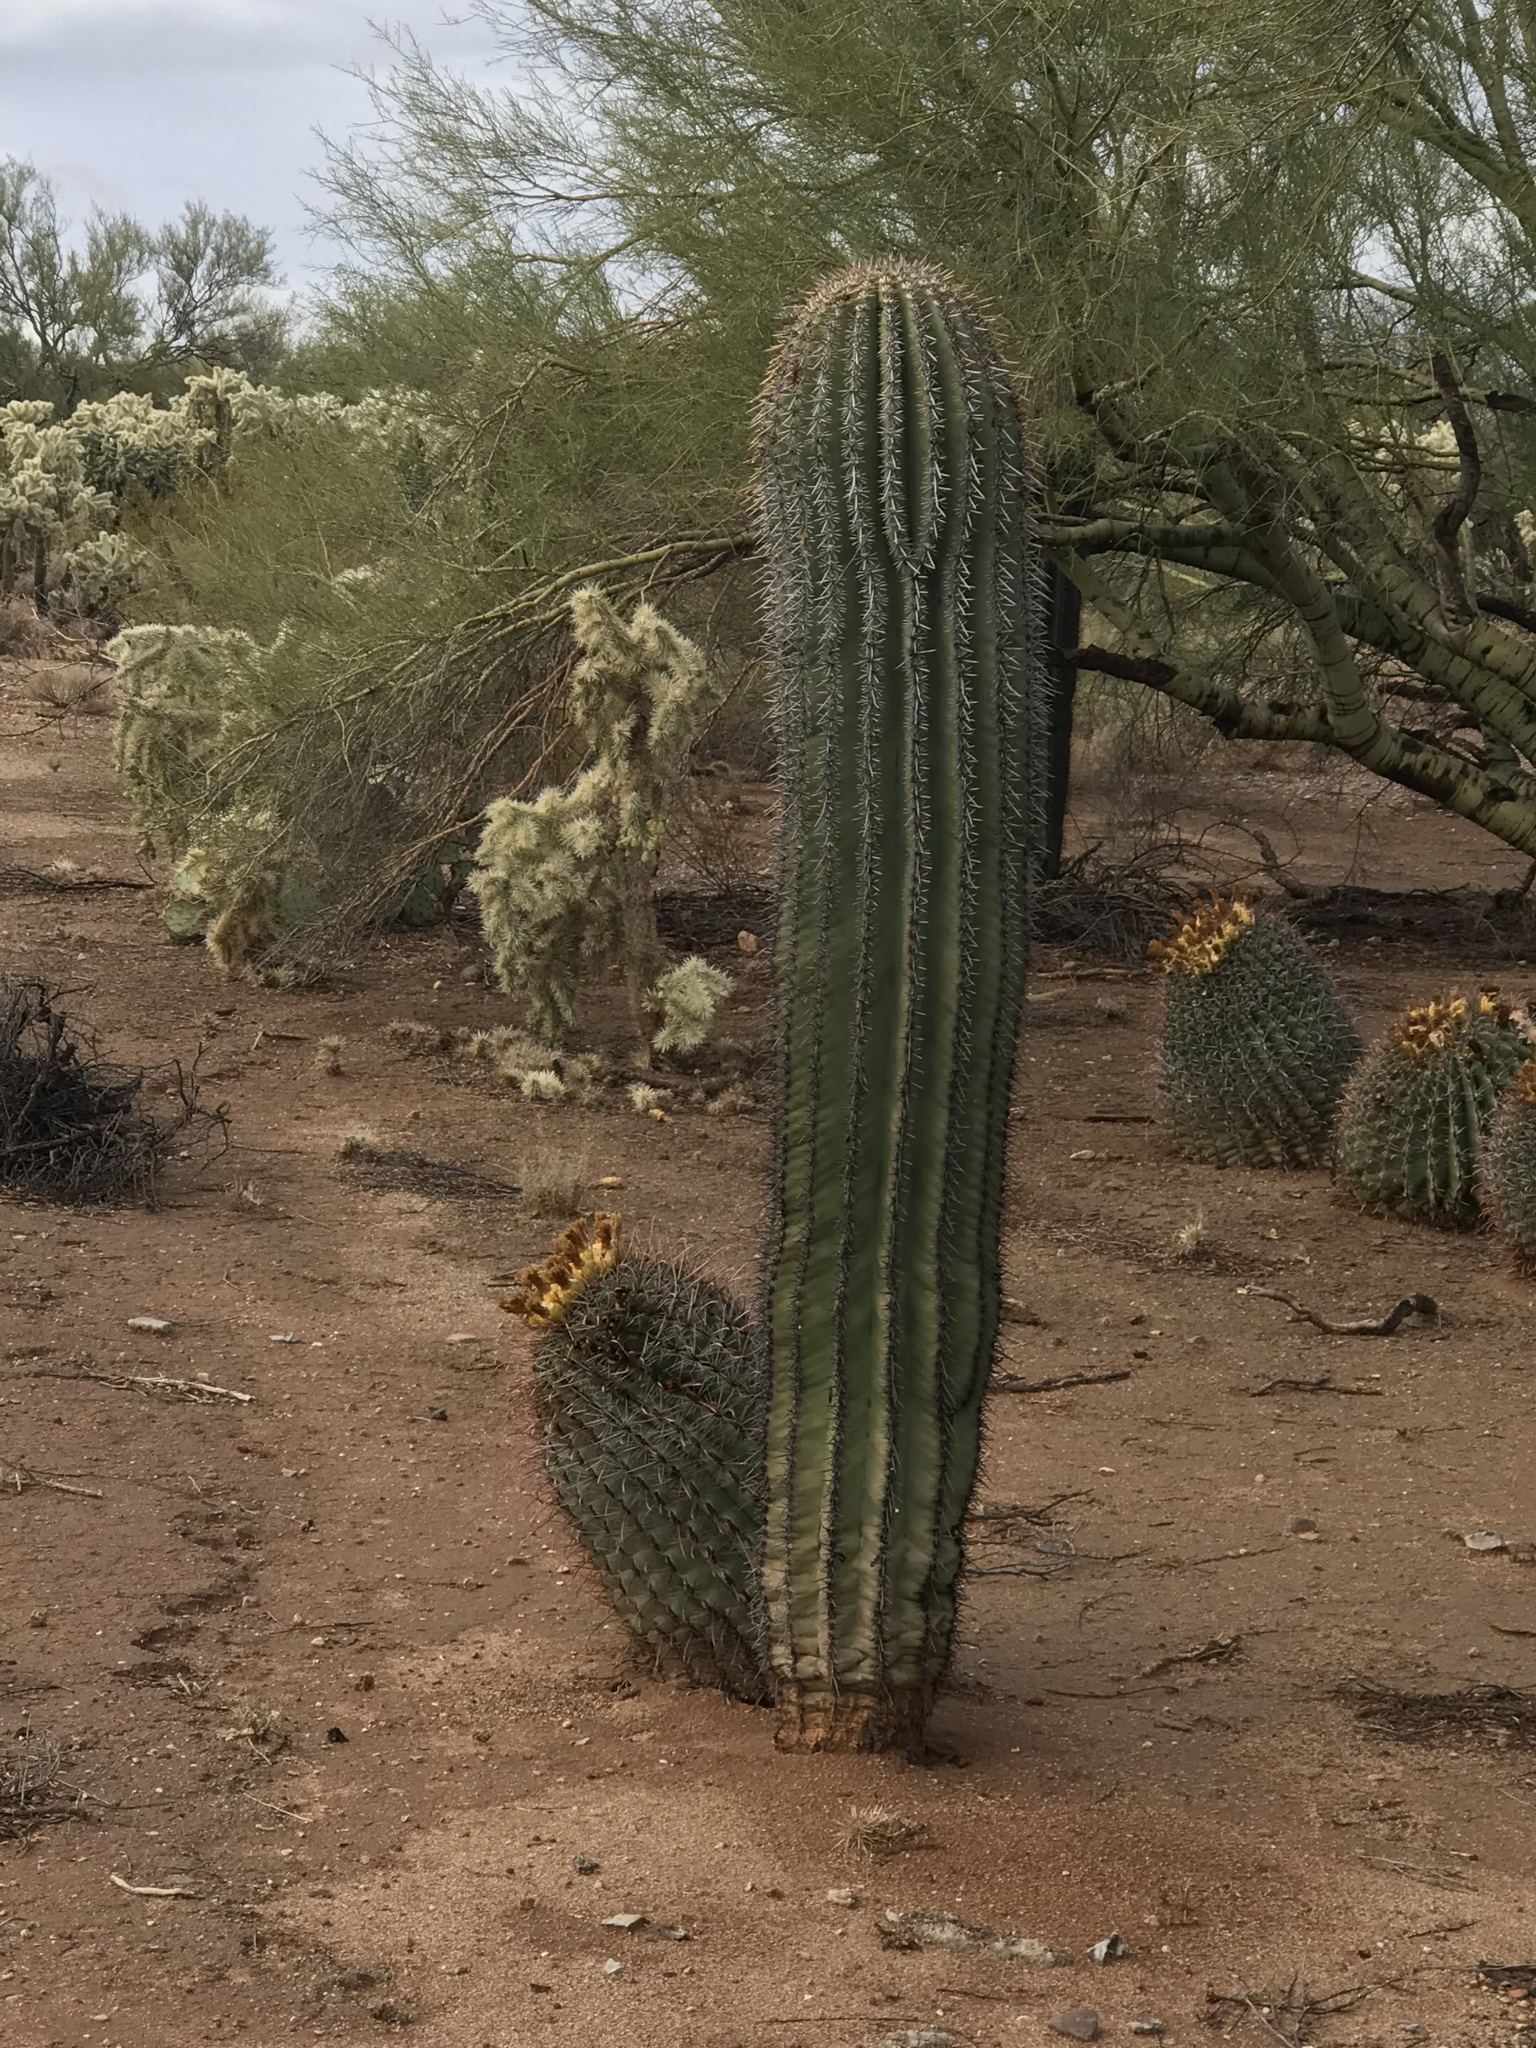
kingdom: Plantae
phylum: Tracheophyta
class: Magnoliopsida
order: Caryophyllales
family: Cactaceae
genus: Carnegiea
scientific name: Carnegiea gigantea
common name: Saguaro
